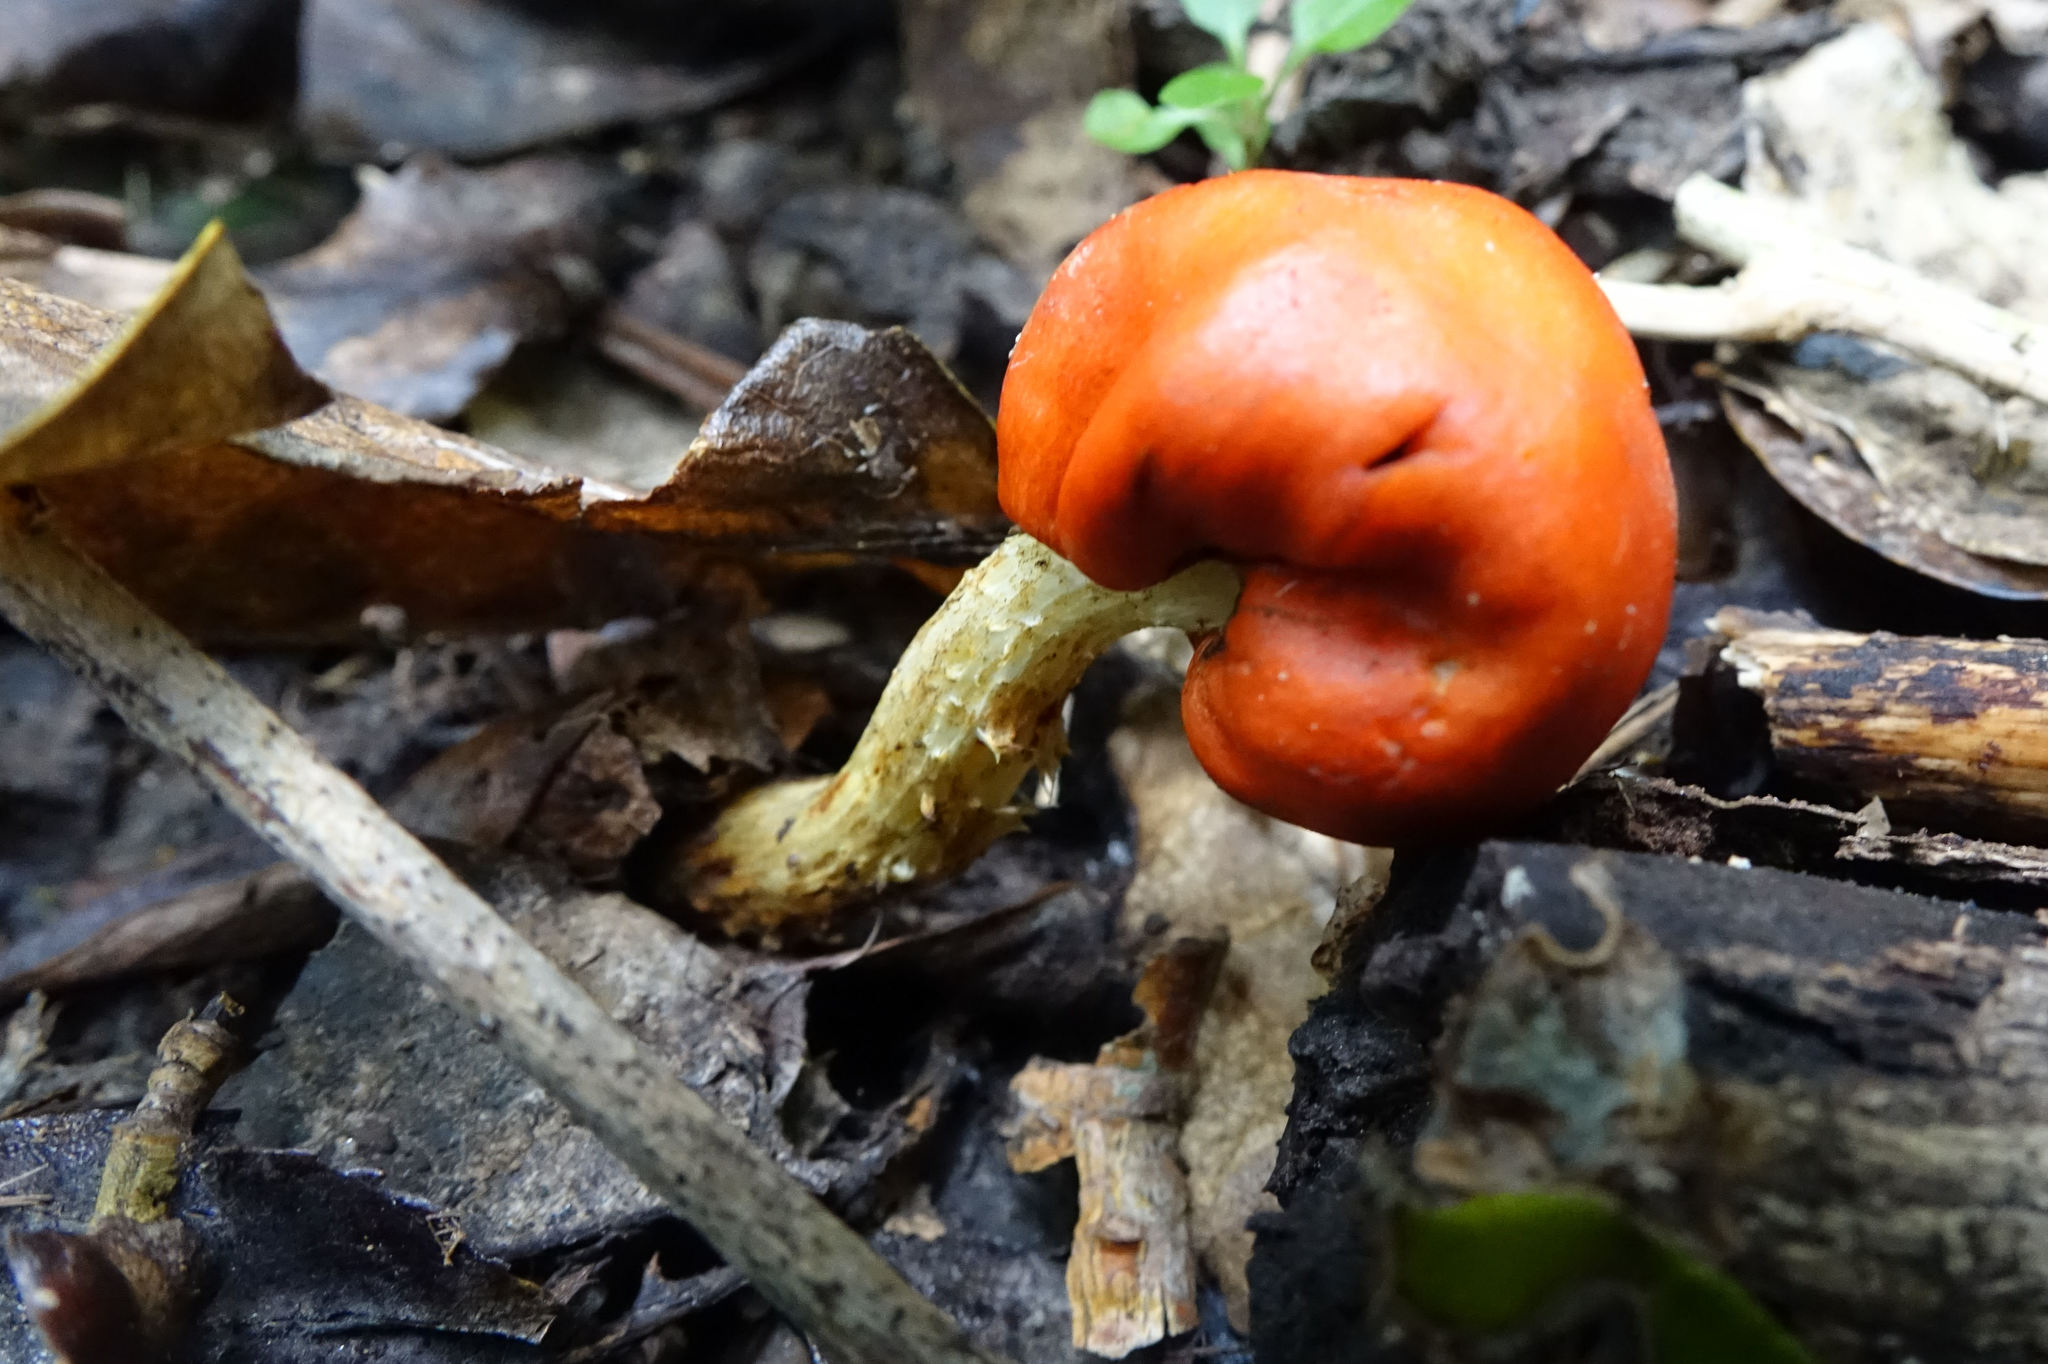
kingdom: Fungi
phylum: Basidiomycota
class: Agaricomycetes
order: Agaricales
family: Strophariaceae
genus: Leratiomyces
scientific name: Leratiomyces erythrocephalus
